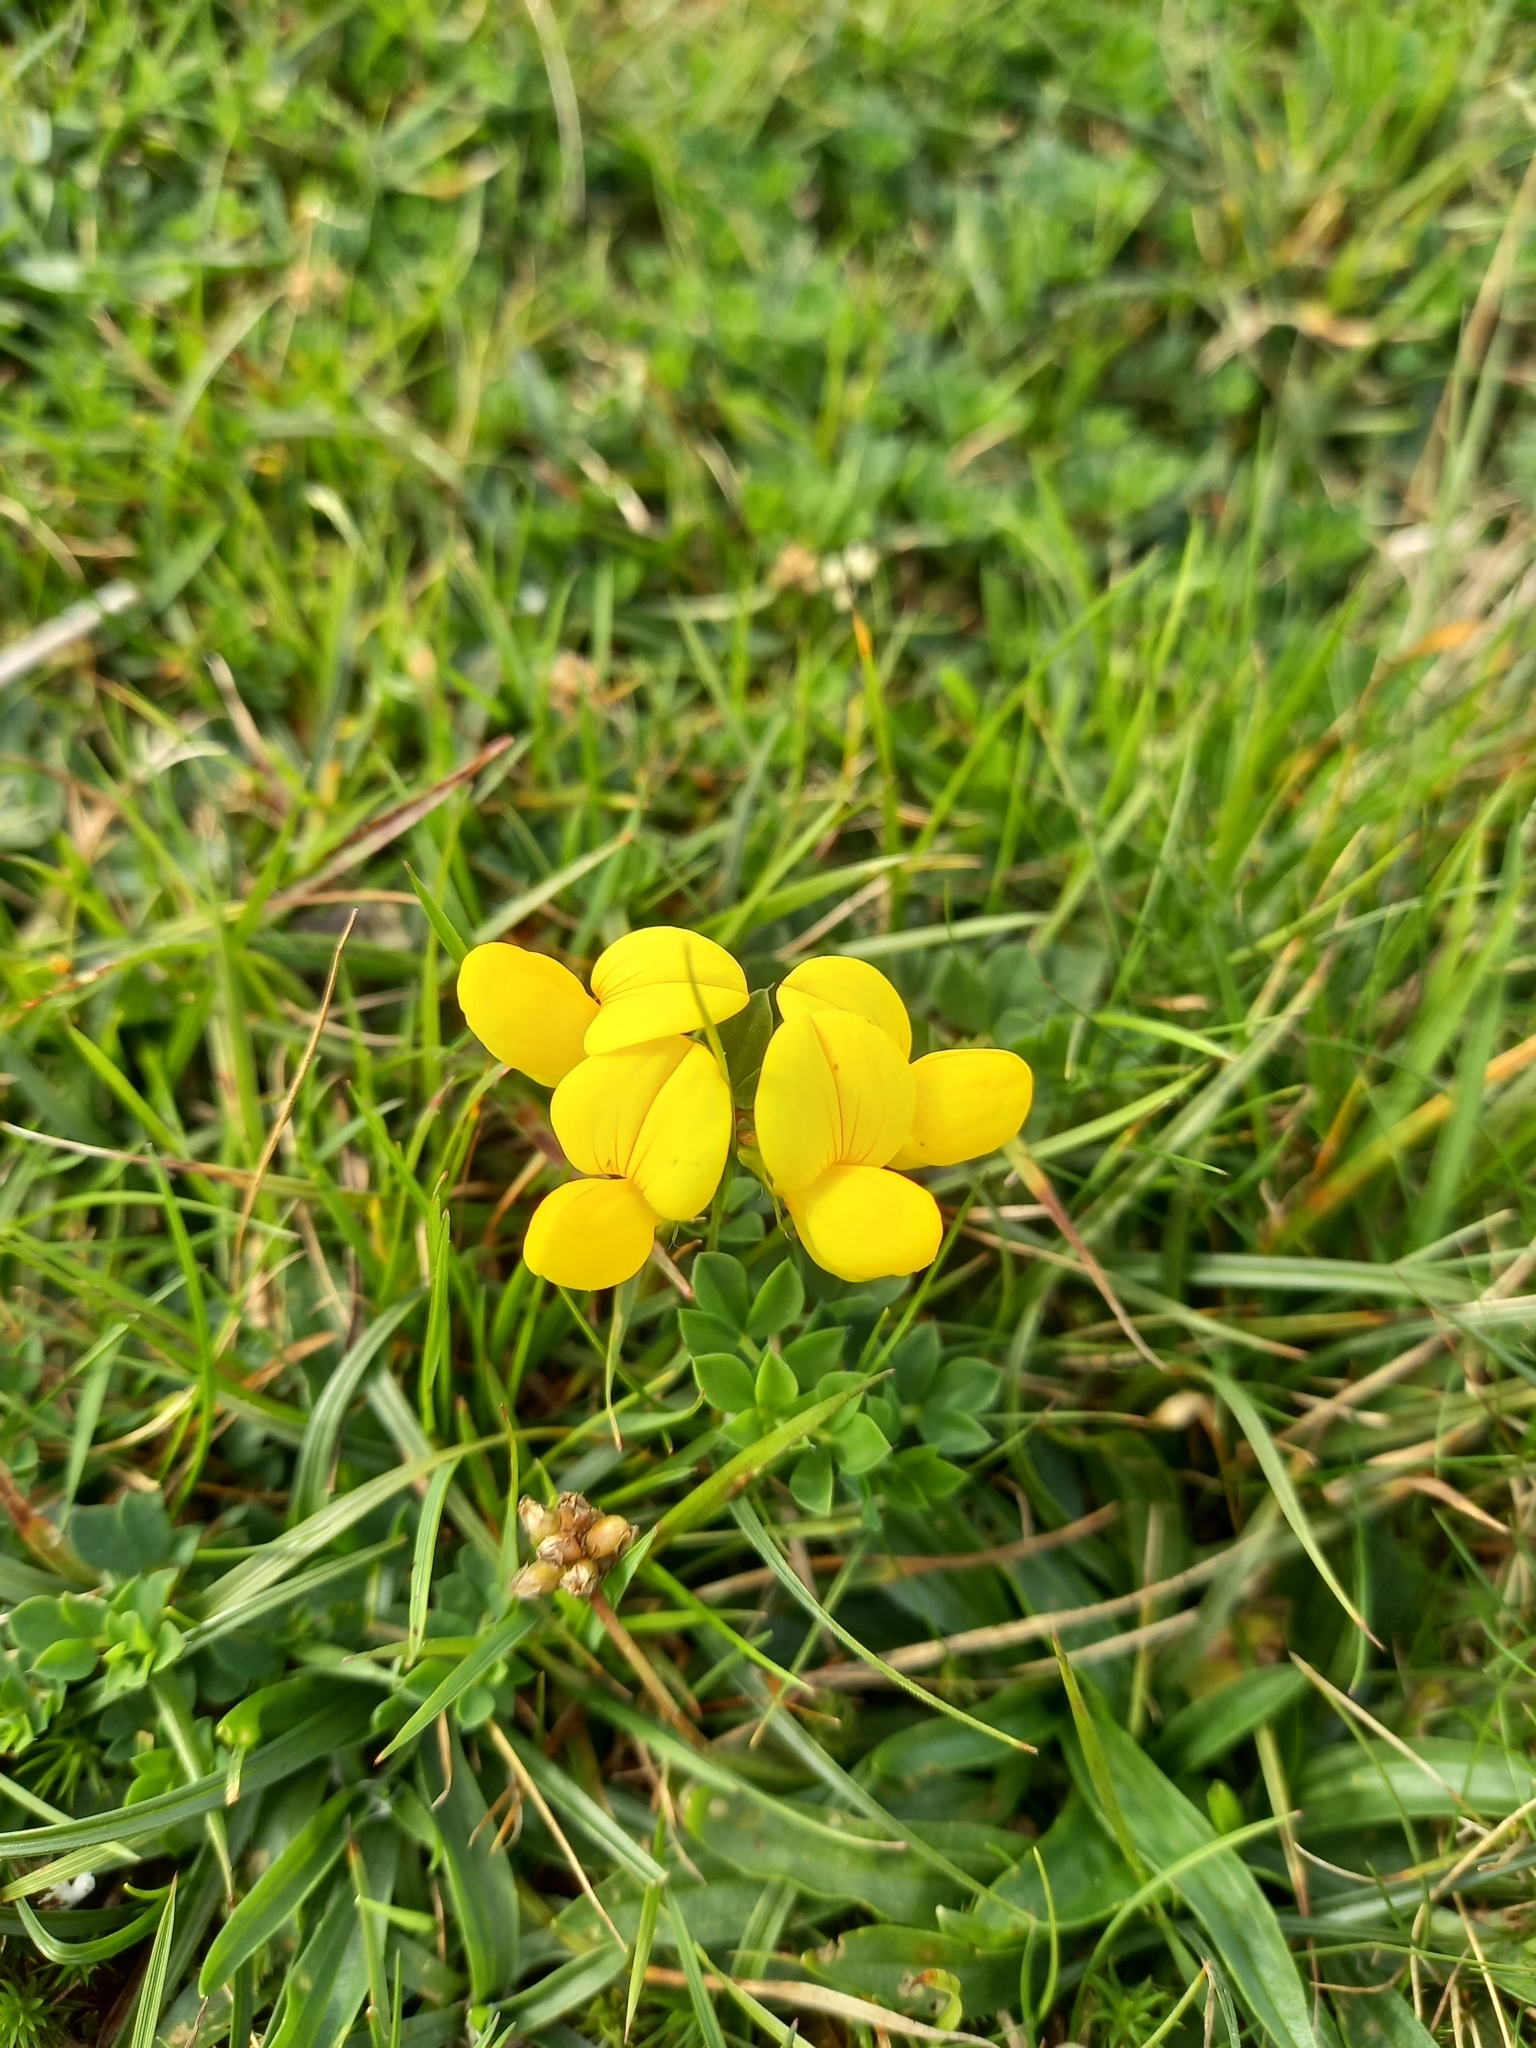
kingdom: Plantae
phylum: Tracheophyta
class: Magnoliopsida
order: Fabales
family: Fabaceae
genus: Lotus
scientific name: Lotus corniculatus
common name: Common bird's-foot-trefoil
